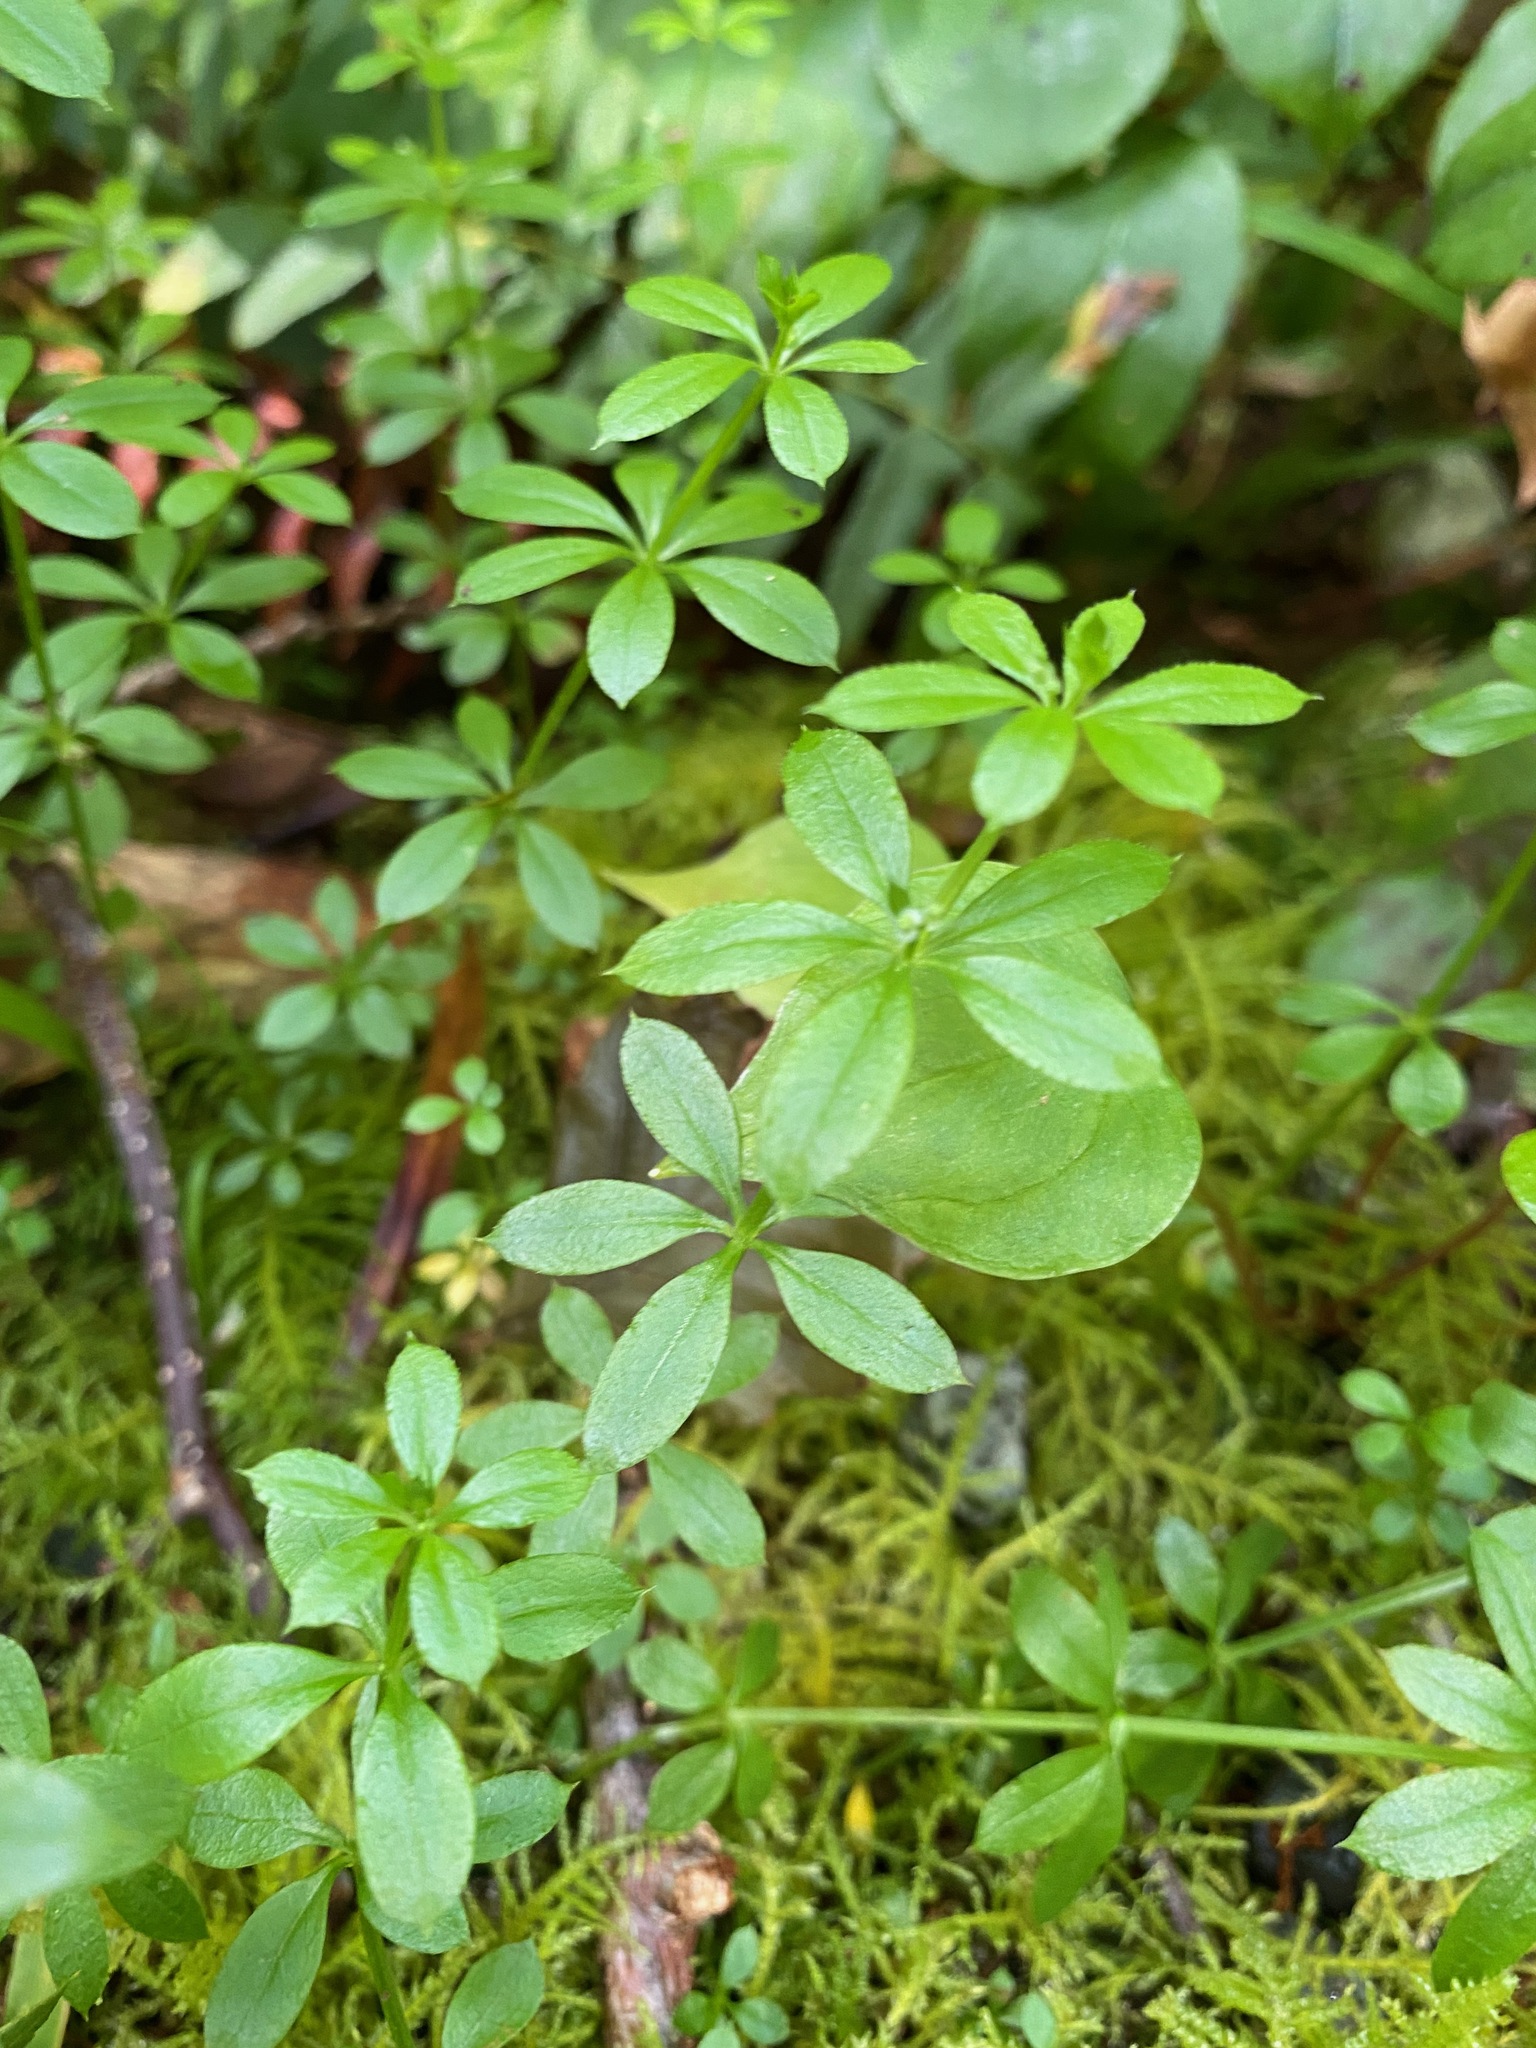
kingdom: Plantae
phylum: Tracheophyta
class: Magnoliopsida
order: Gentianales
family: Rubiaceae
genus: Galium
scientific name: Galium triflorum
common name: Fragrant bedstraw
